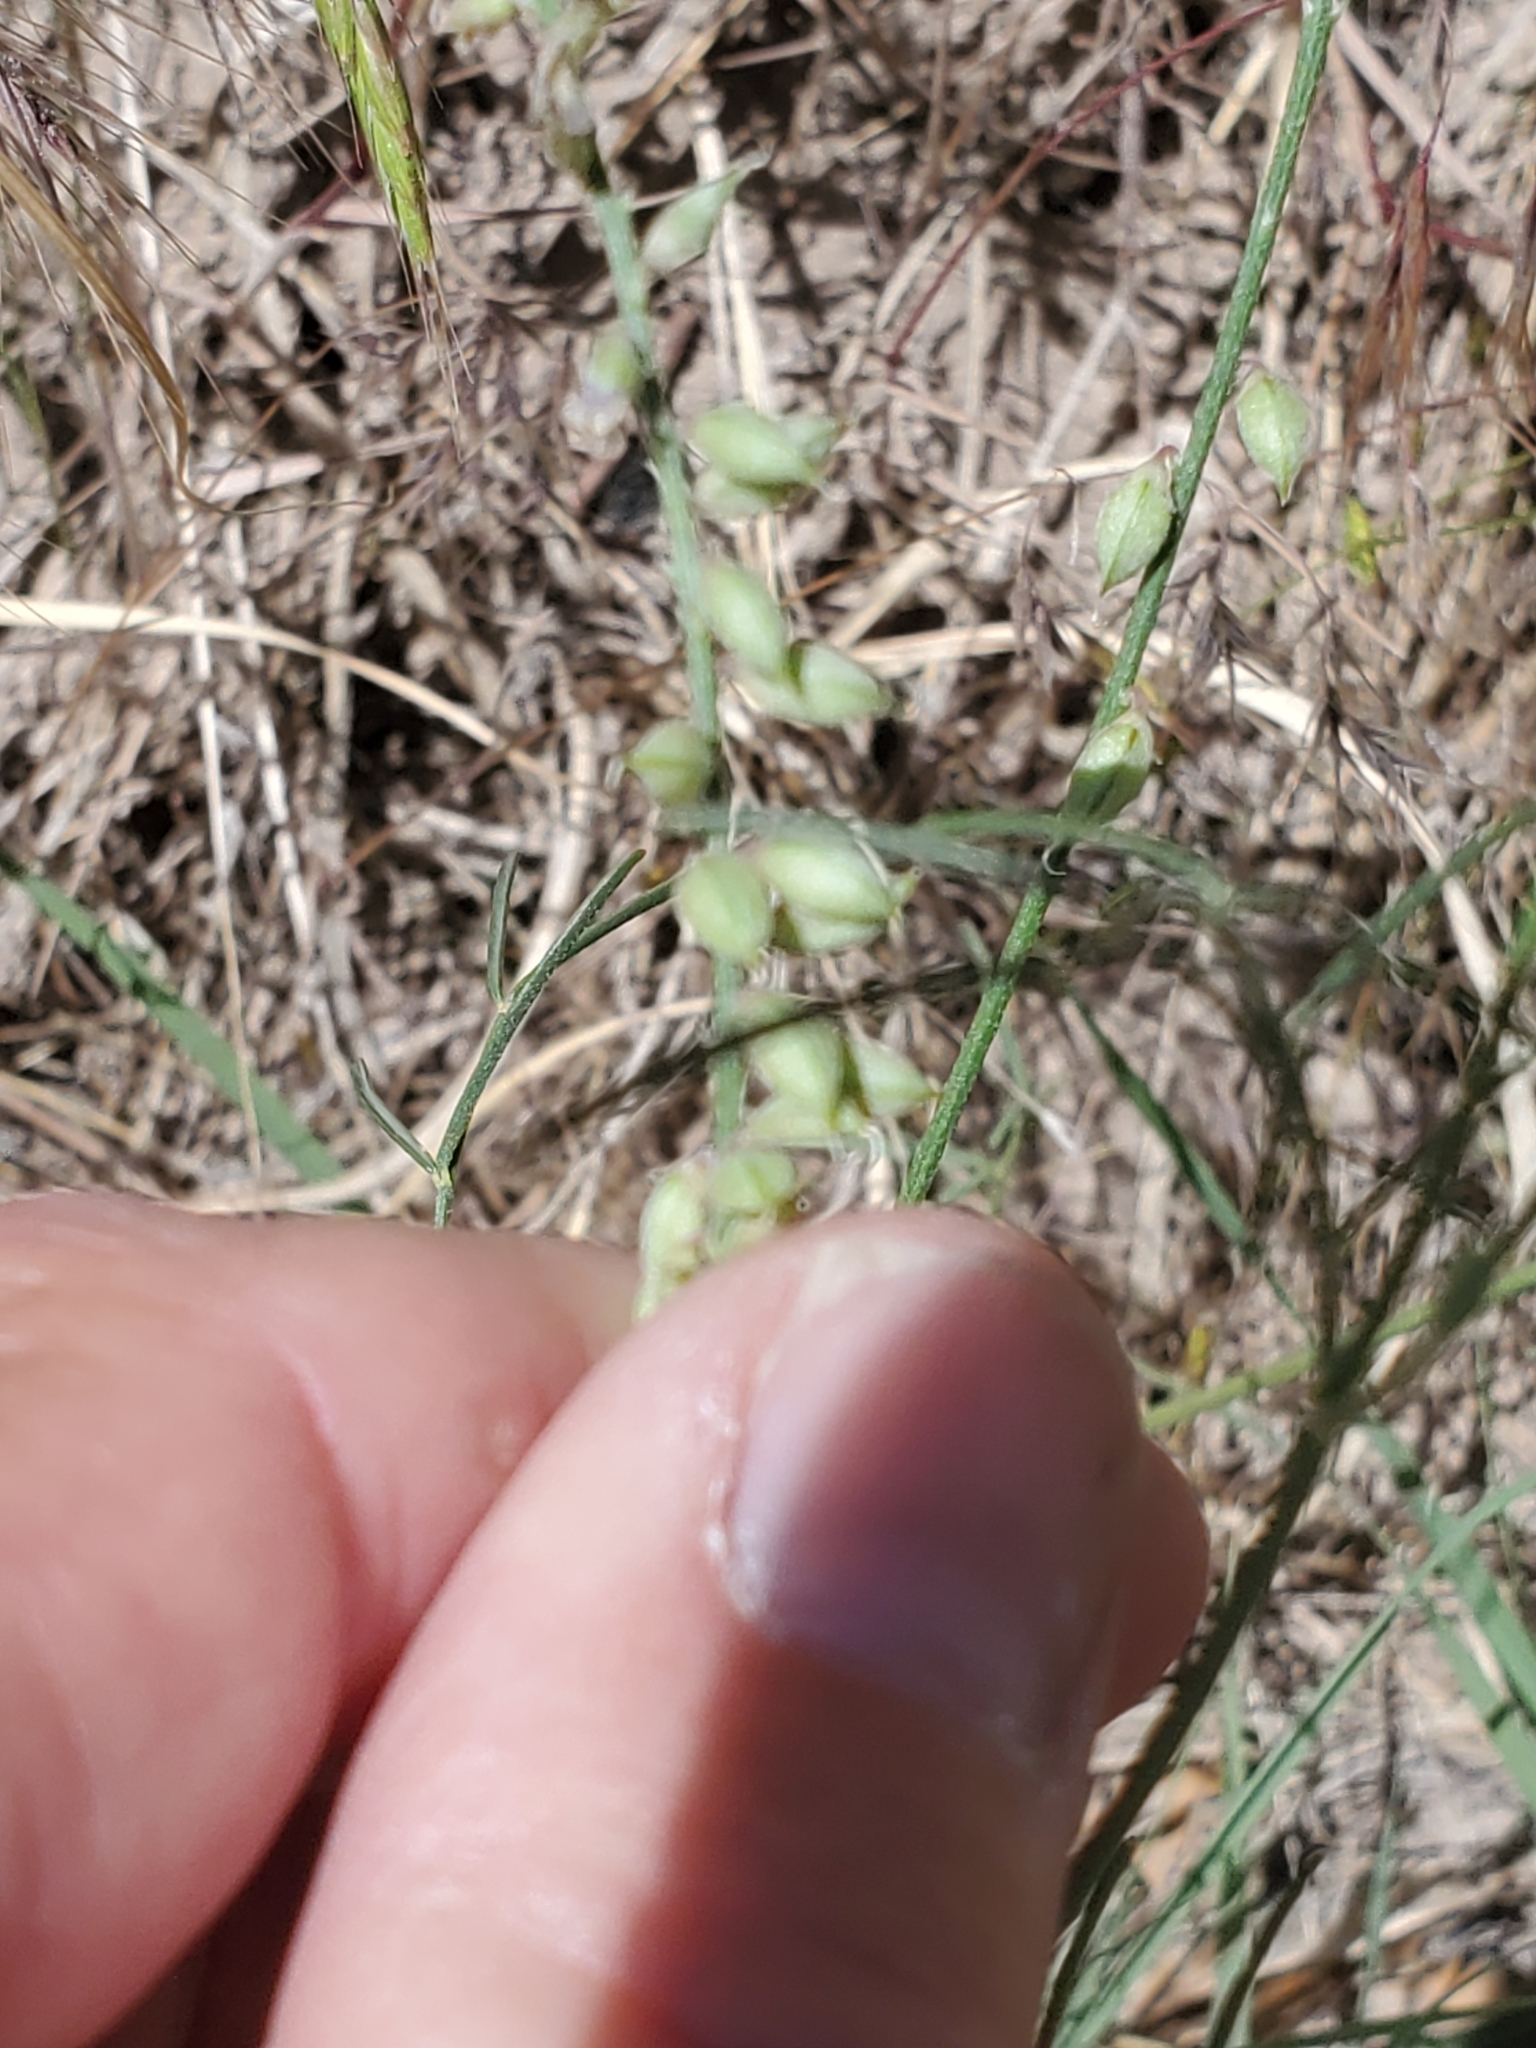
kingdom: Plantae
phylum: Tracheophyta
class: Magnoliopsida
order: Fabales
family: Fabaceae
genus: Astragalus
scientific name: Astragalus gracilis
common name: Slender milk-vetch
